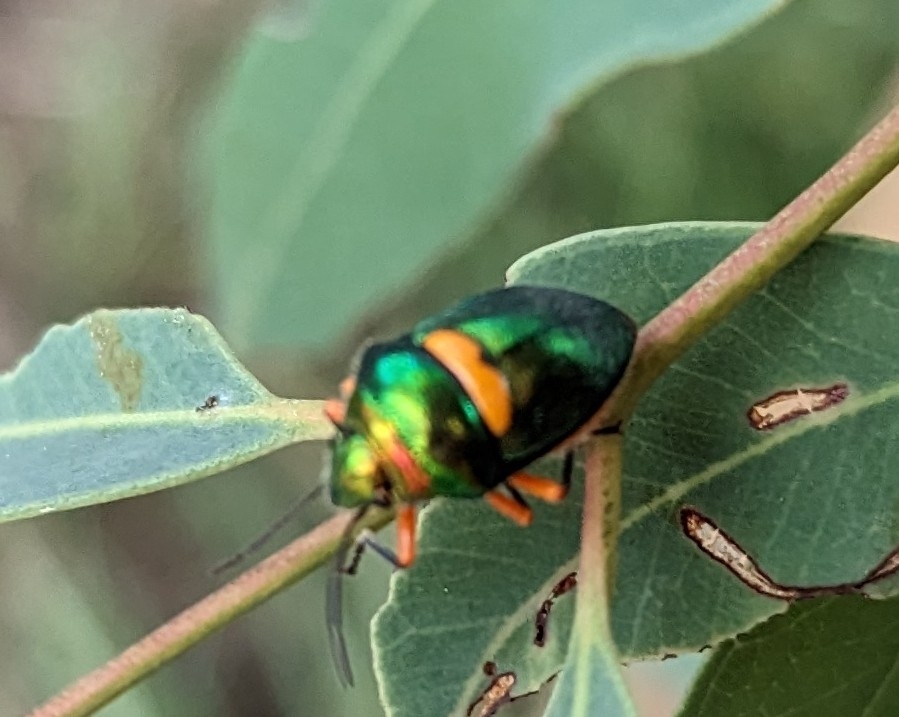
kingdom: Animalia
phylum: Arthropoda
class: Insecta
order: Hemiptera
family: Scutelleridae
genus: Lampromicra
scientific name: Lampromicra senator
